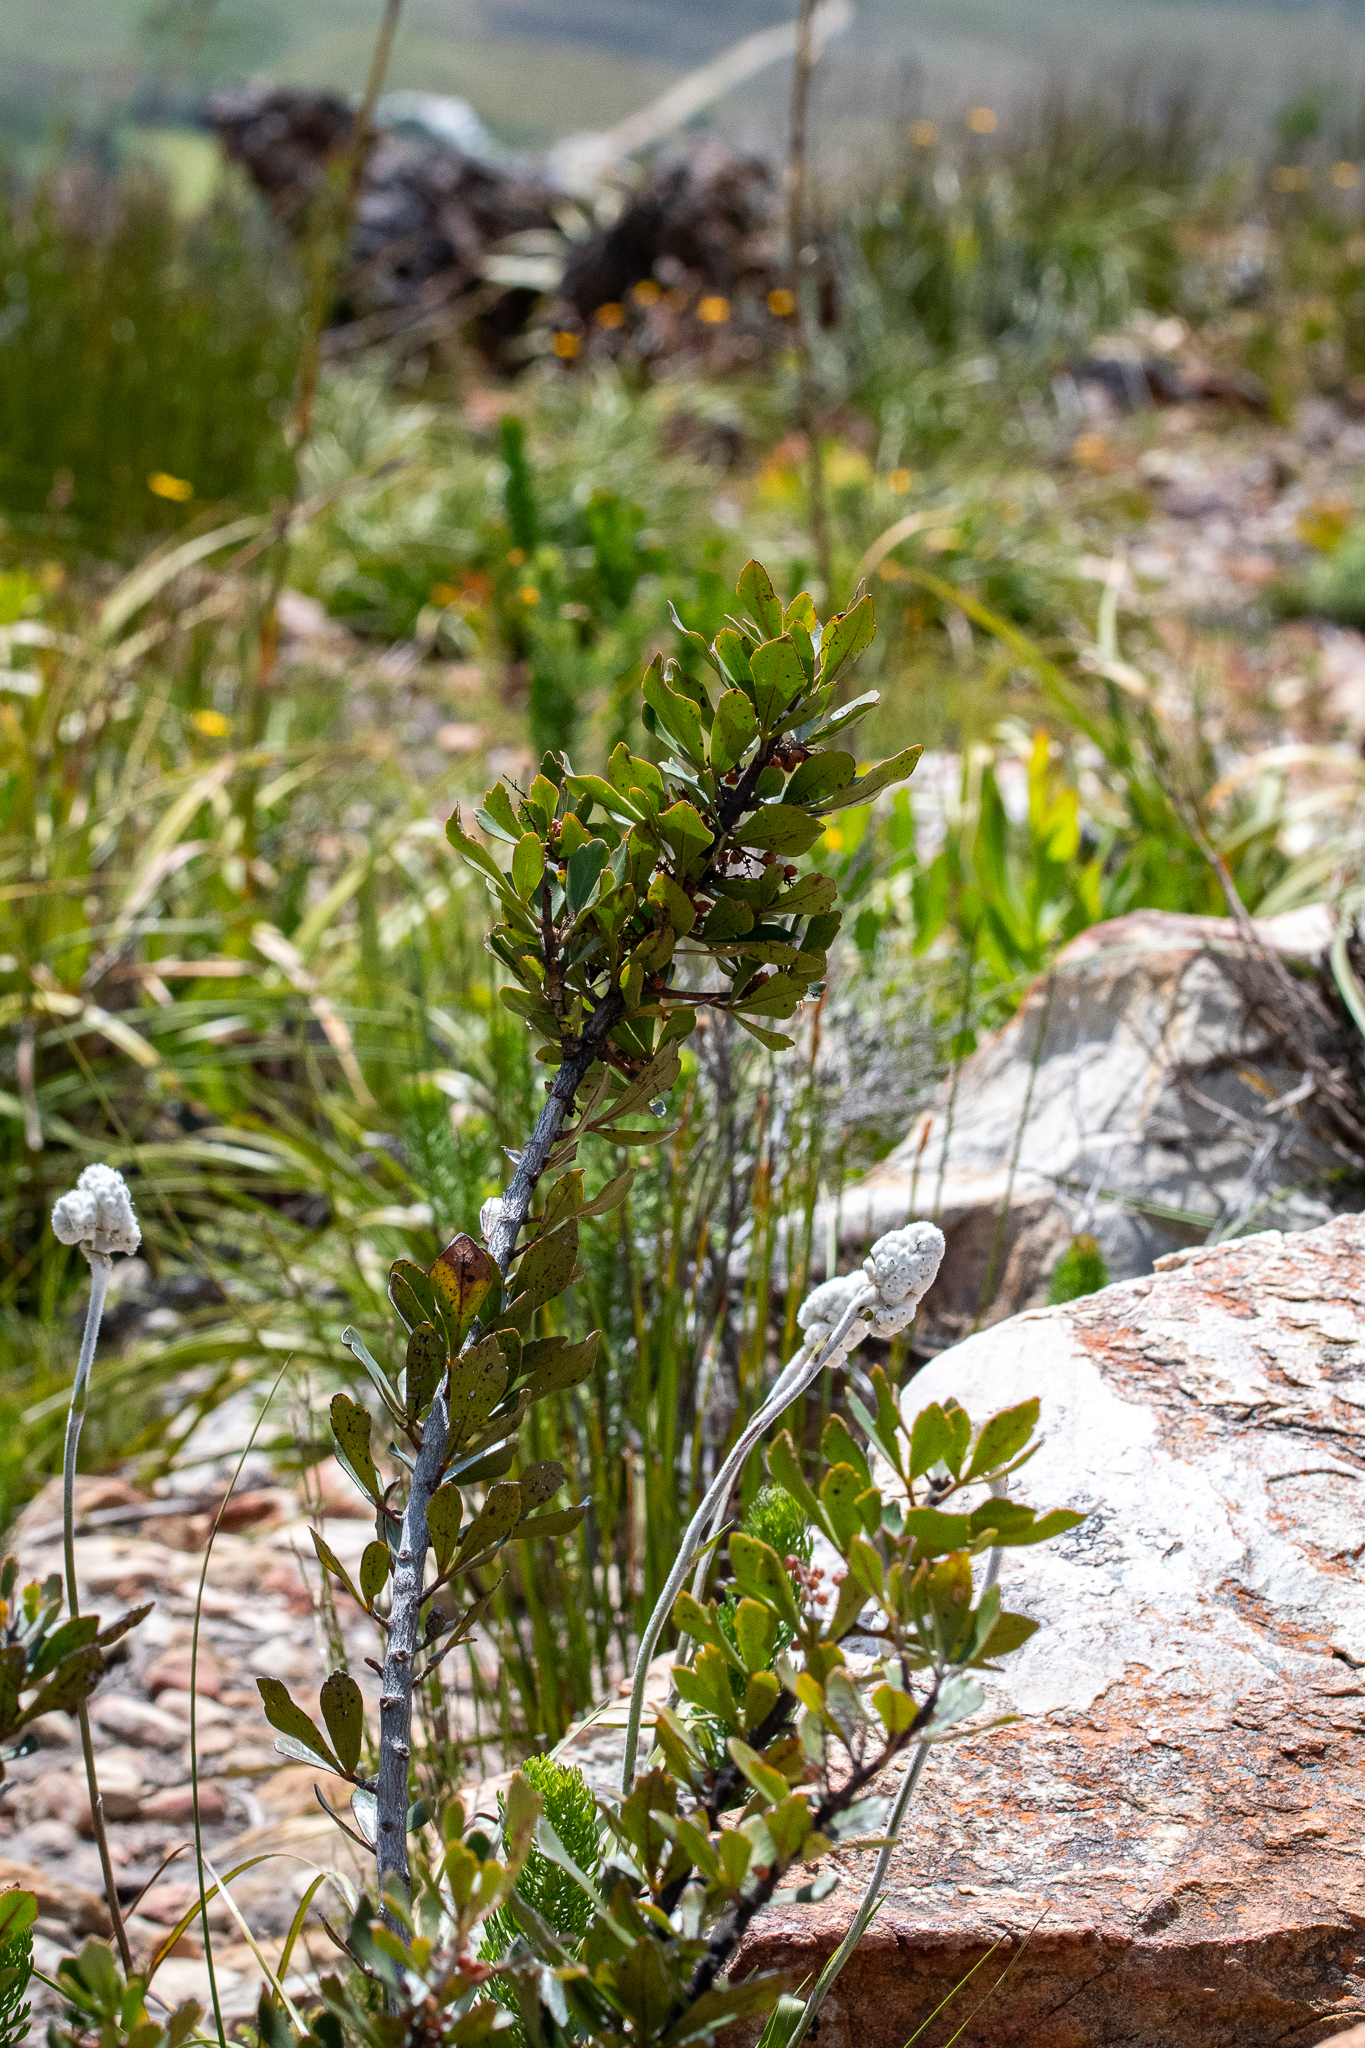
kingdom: Plantae
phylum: Tracheophyta
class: Magnoliopsida
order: Sapindales
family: Anacardiaceae
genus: Searsia
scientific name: Searsia scytophylla
